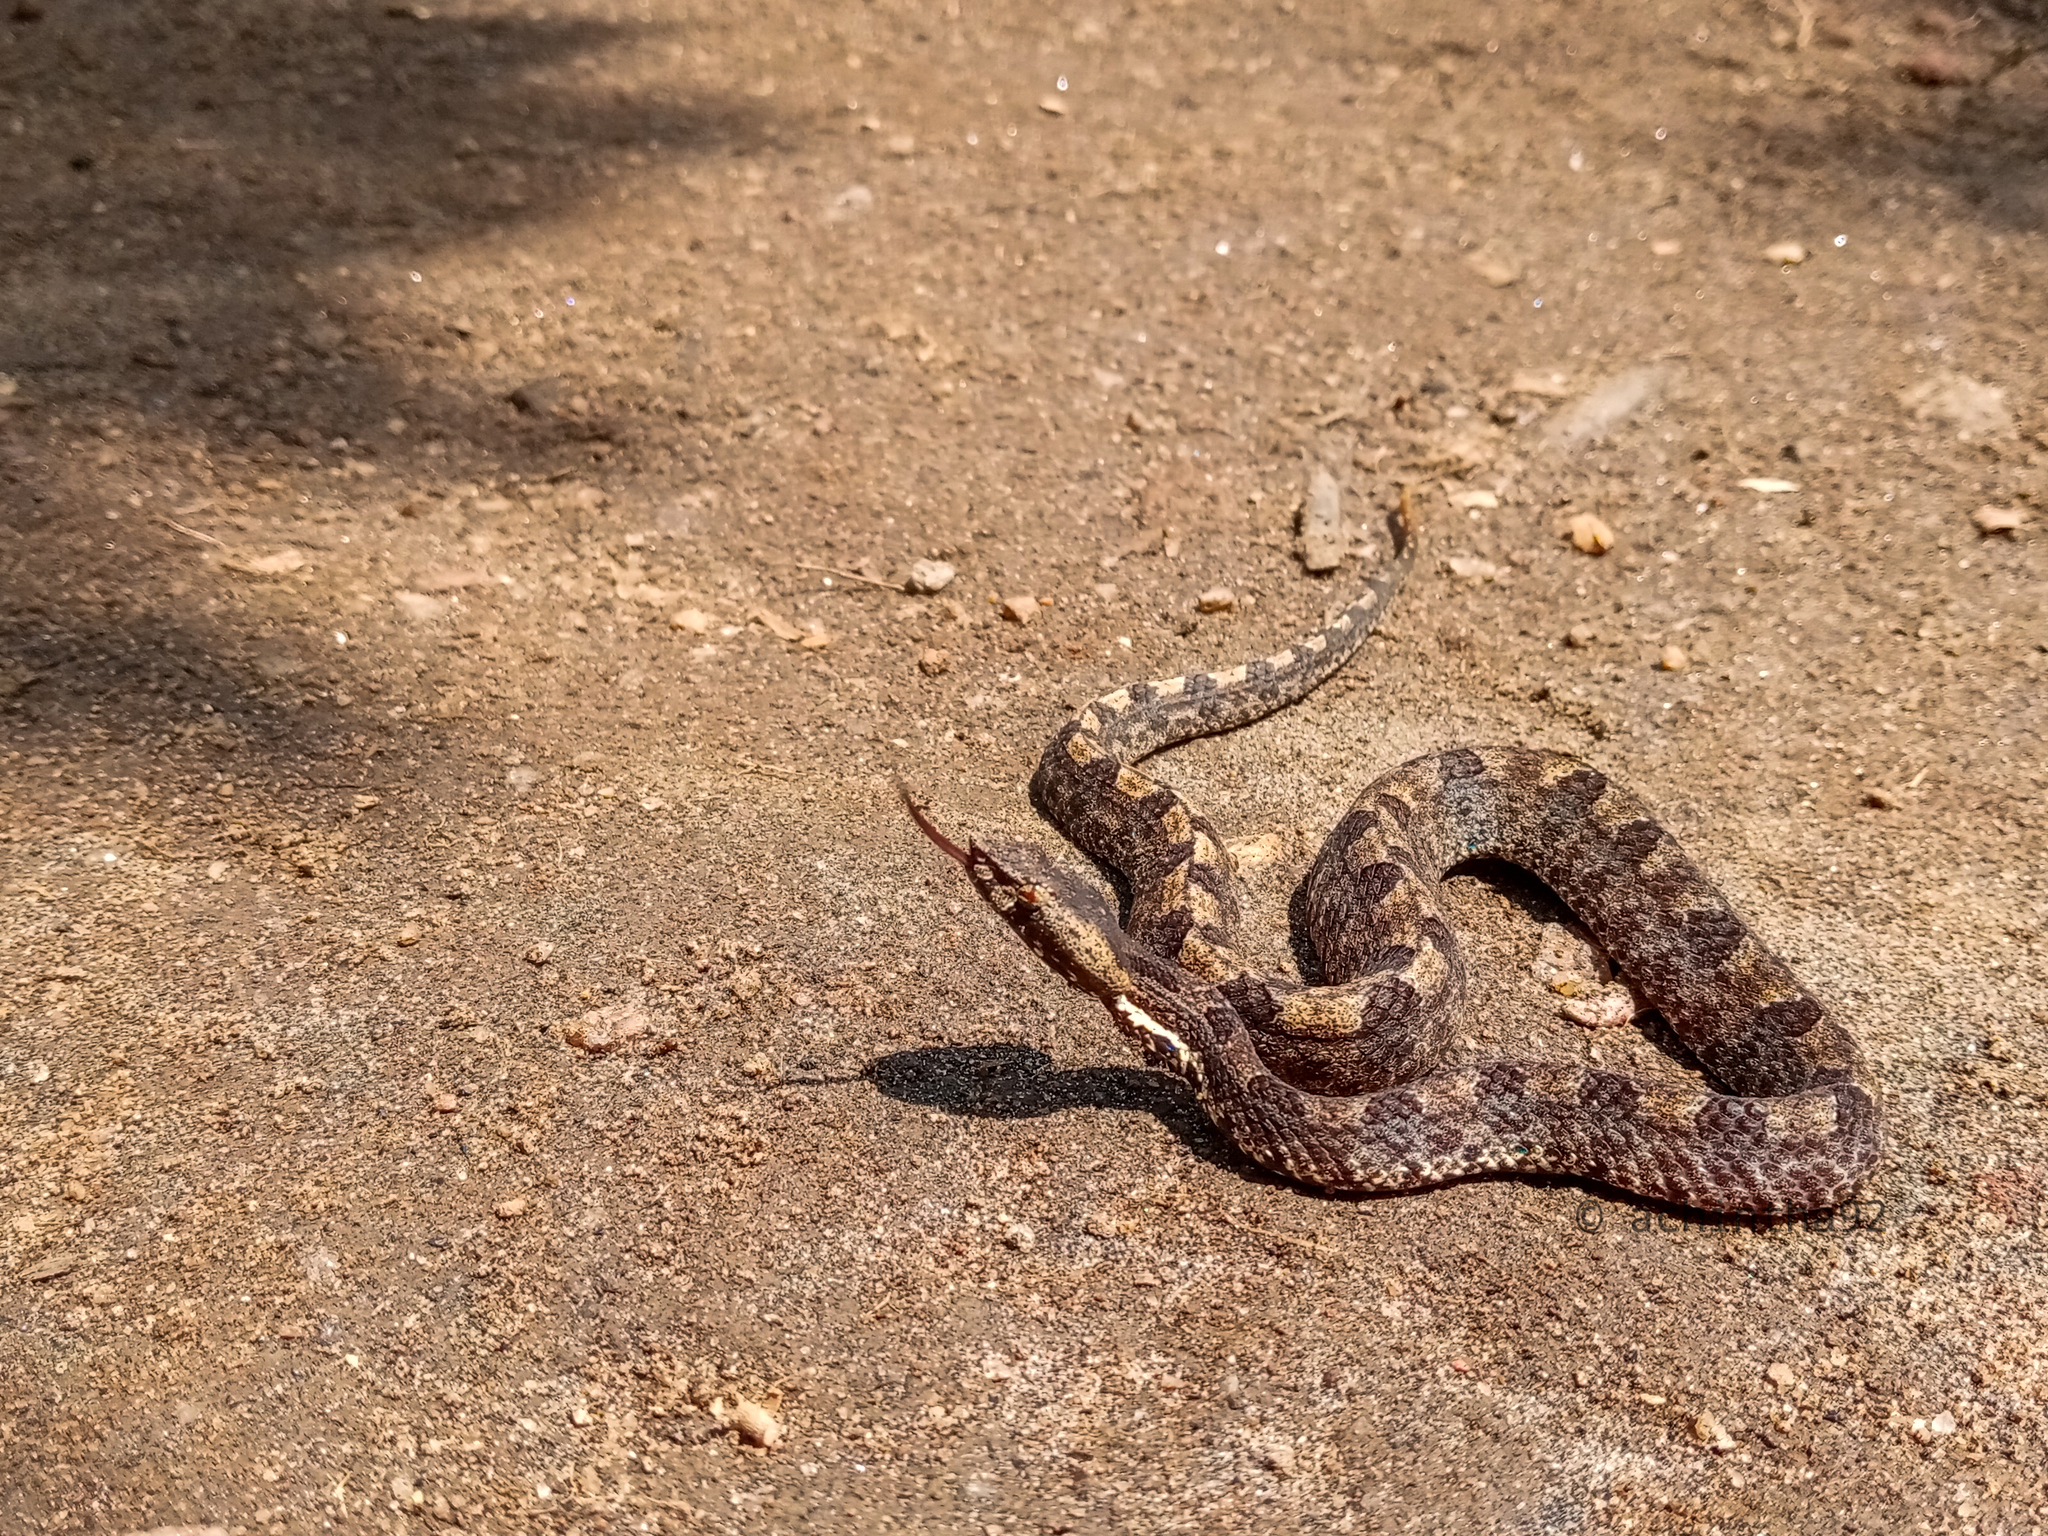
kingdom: Animalia
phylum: Chordata
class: Squamata
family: Viperidae
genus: Hypnale
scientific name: Hypnale hypnale
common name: Hump-nosed moccasin
